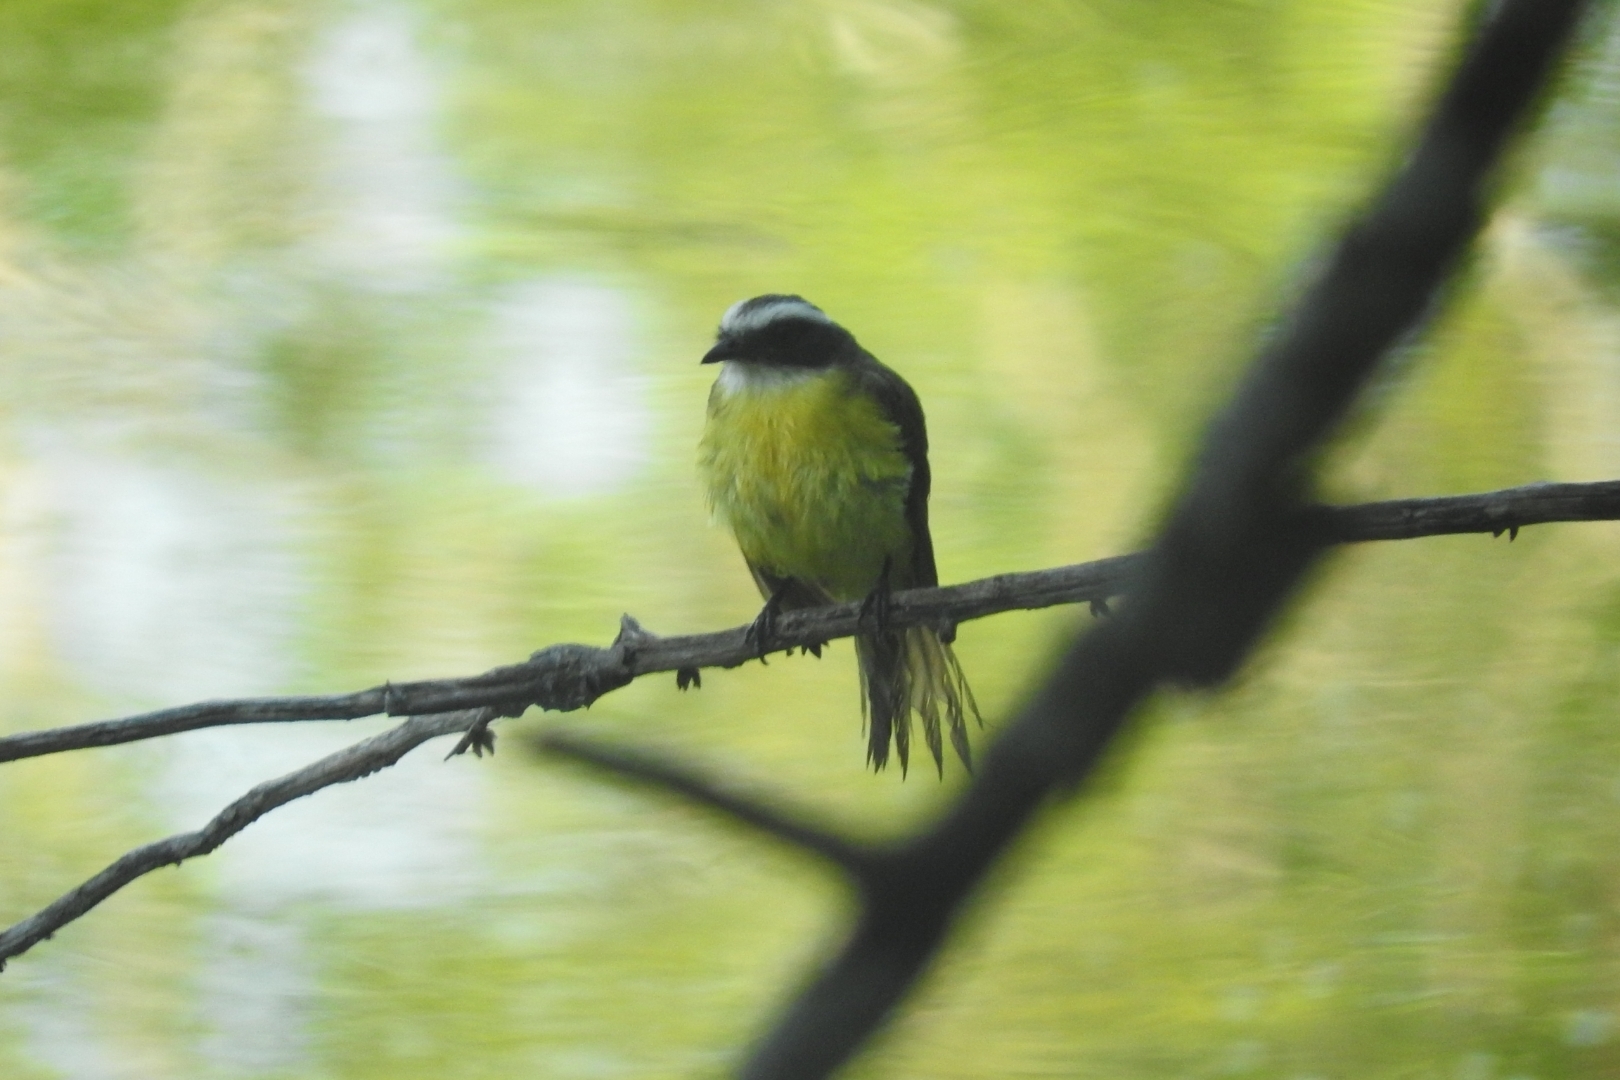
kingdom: Animalia
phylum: Chordata
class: Aves
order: Passeriformes
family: Tyrannidae
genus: Myiozetetes
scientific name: Myiozetetes similis
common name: Social flycatcher
